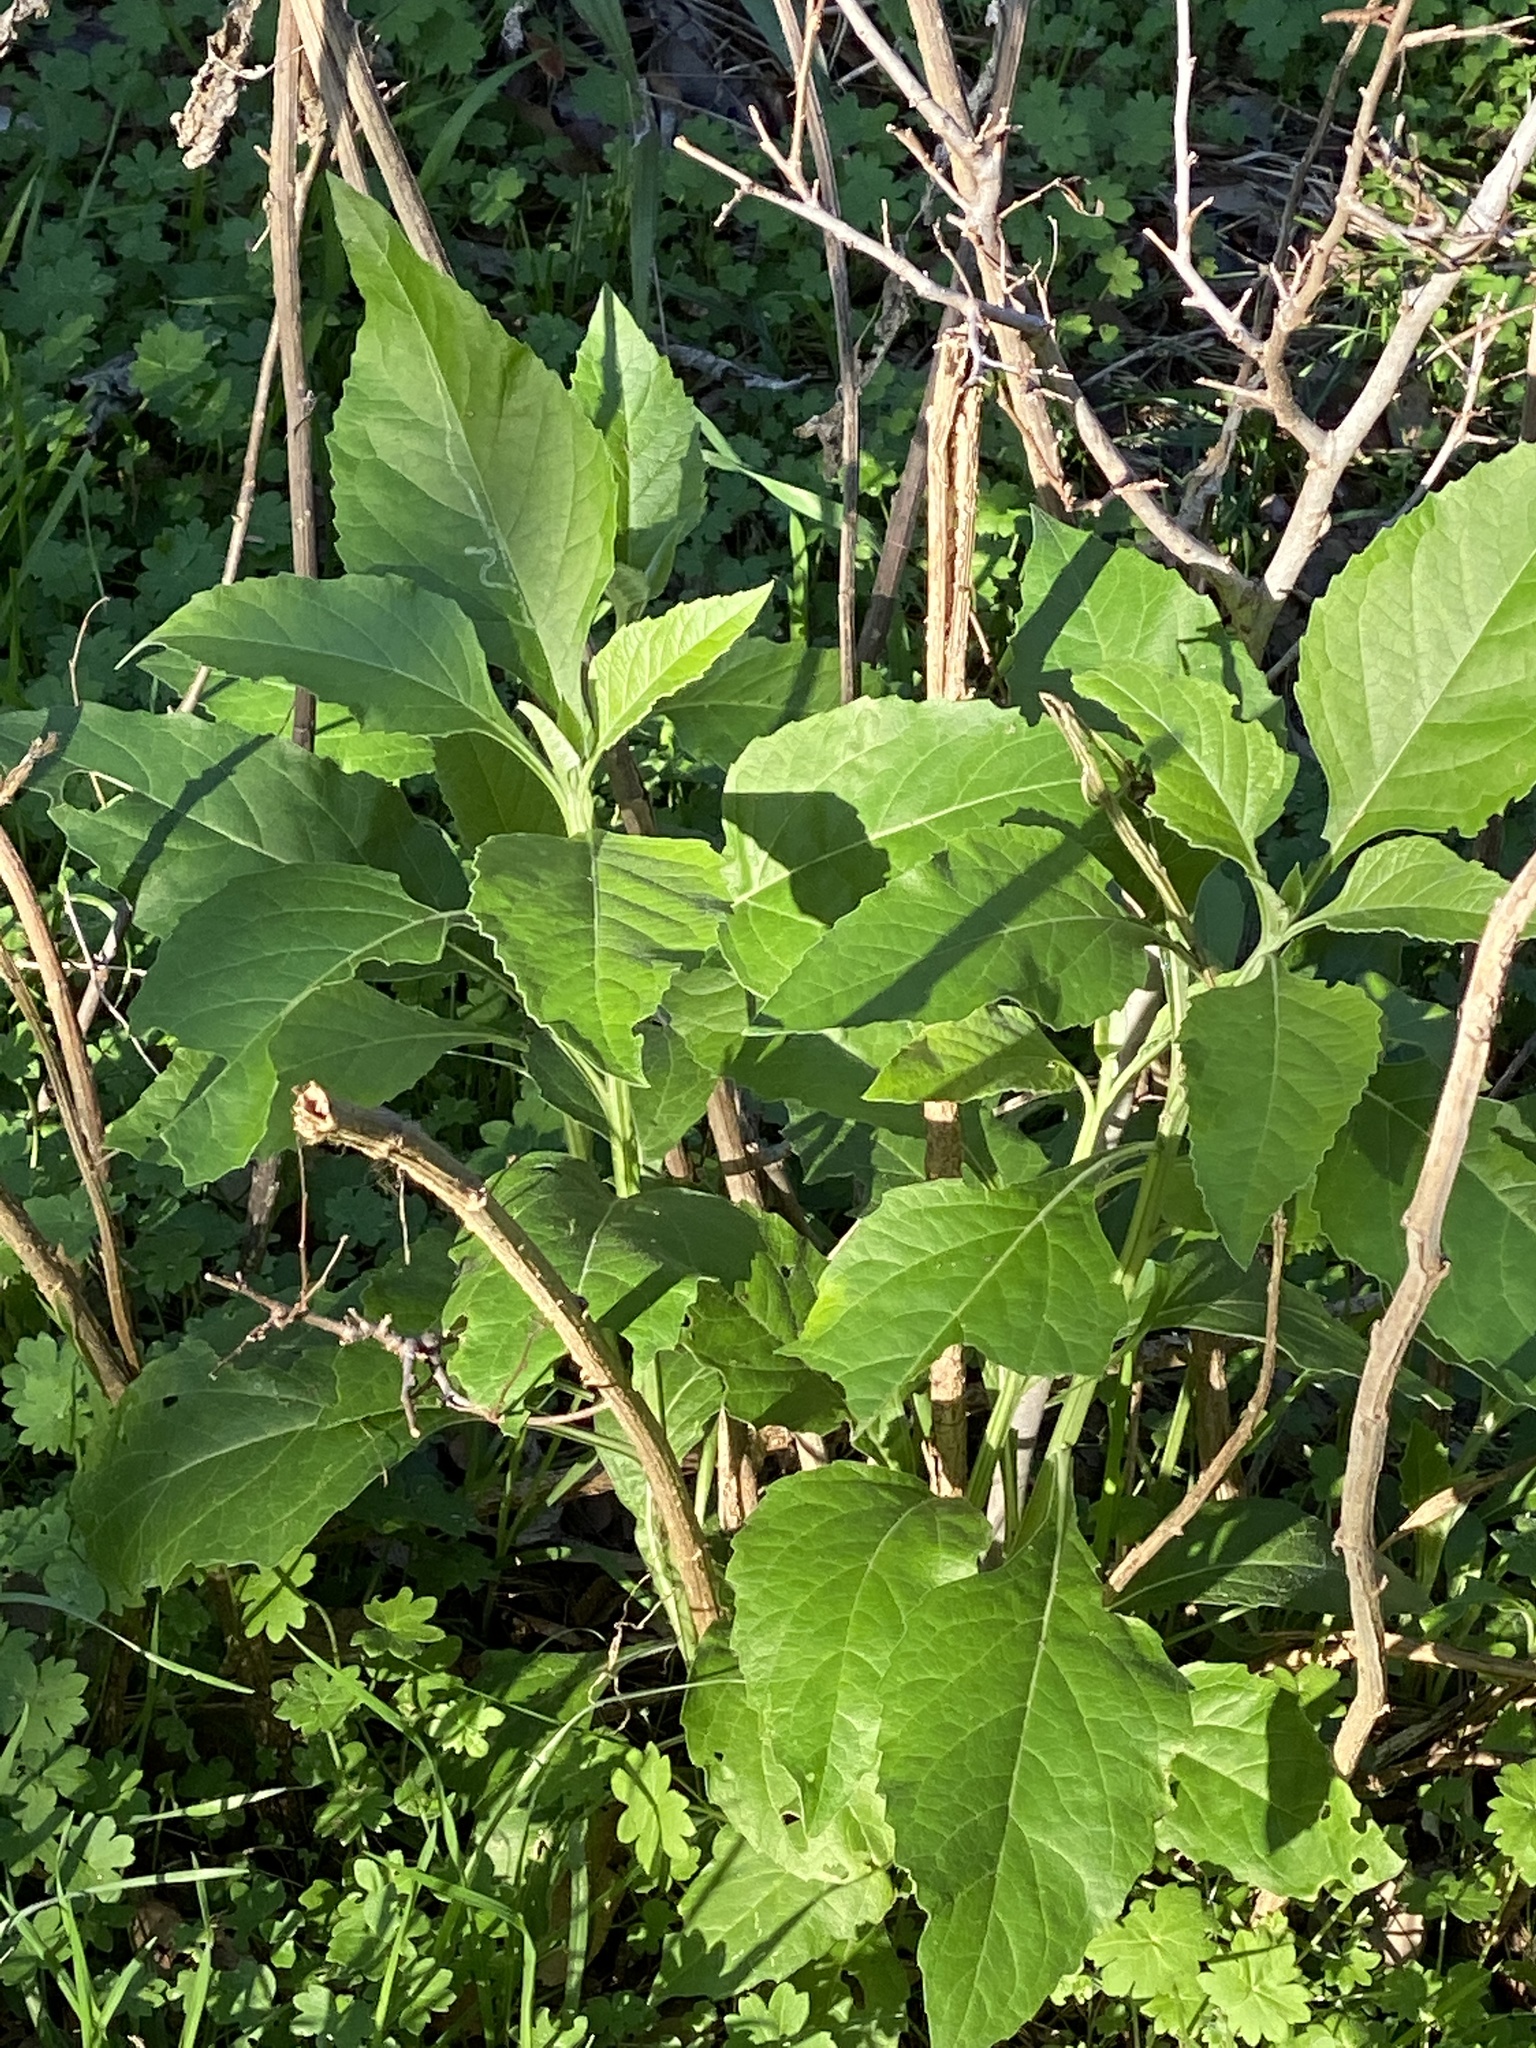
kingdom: Plantae
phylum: Tracheophyta
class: Magnoliopsida
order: Asterales
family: Asteraceae
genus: Verbesina
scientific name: Verbesina virginica
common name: Frostweed
